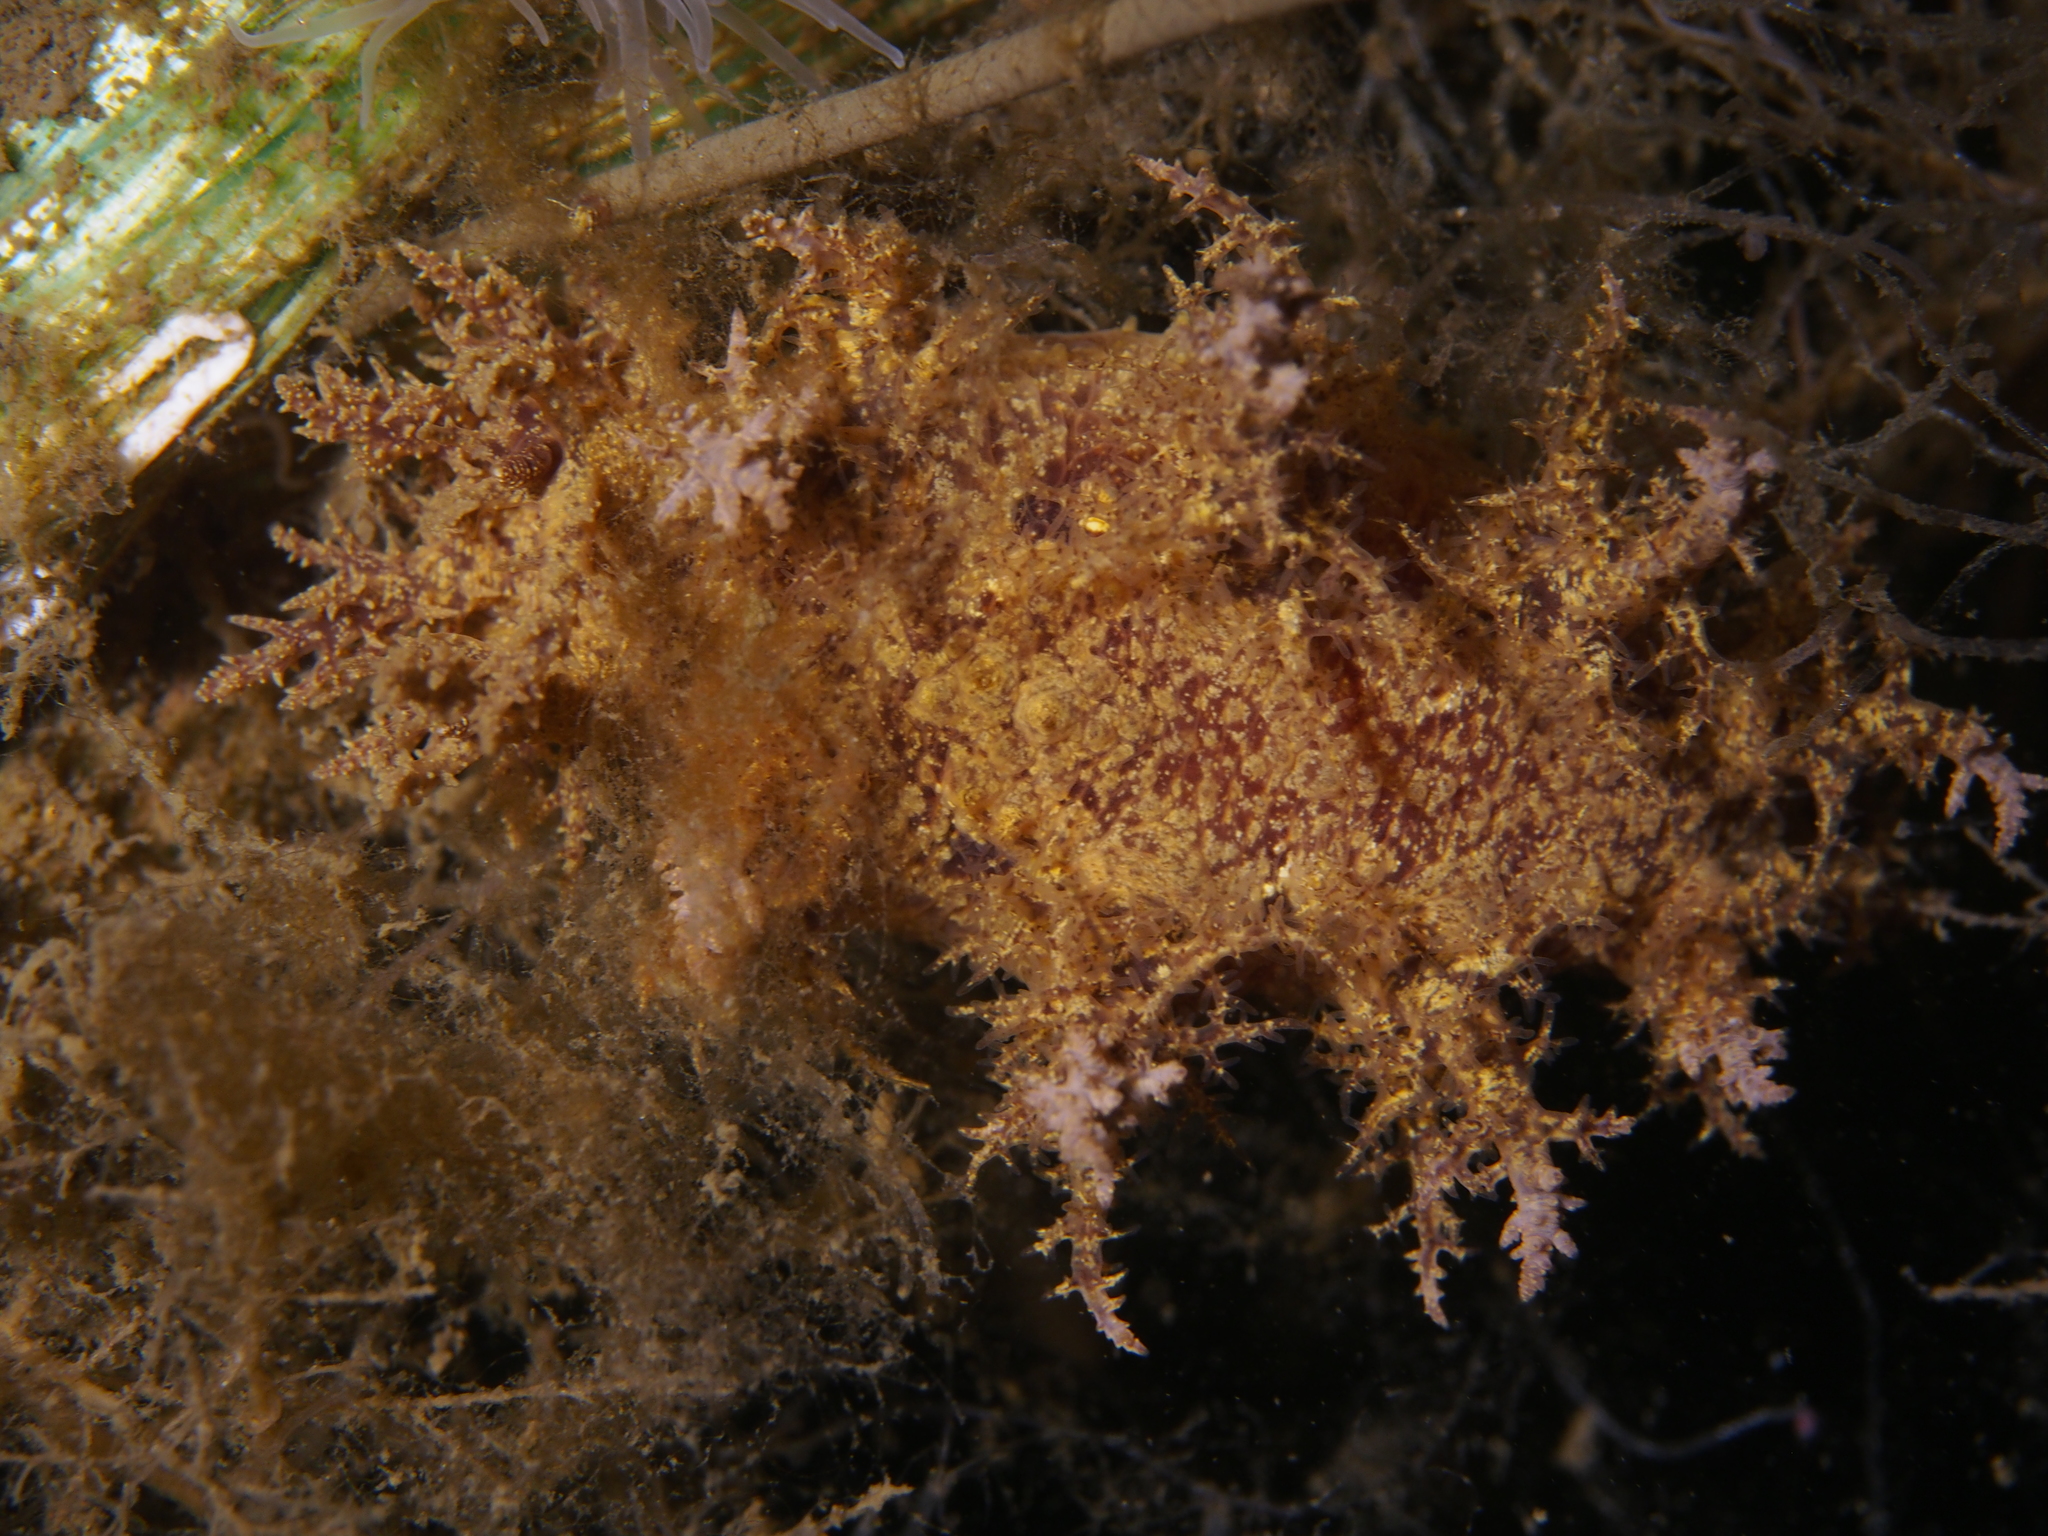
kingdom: Animalia
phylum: Mollusca
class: Gastropoda
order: Nudibranchia
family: Dendronotidae
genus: Dendronotus
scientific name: Dendronotus europaeus
